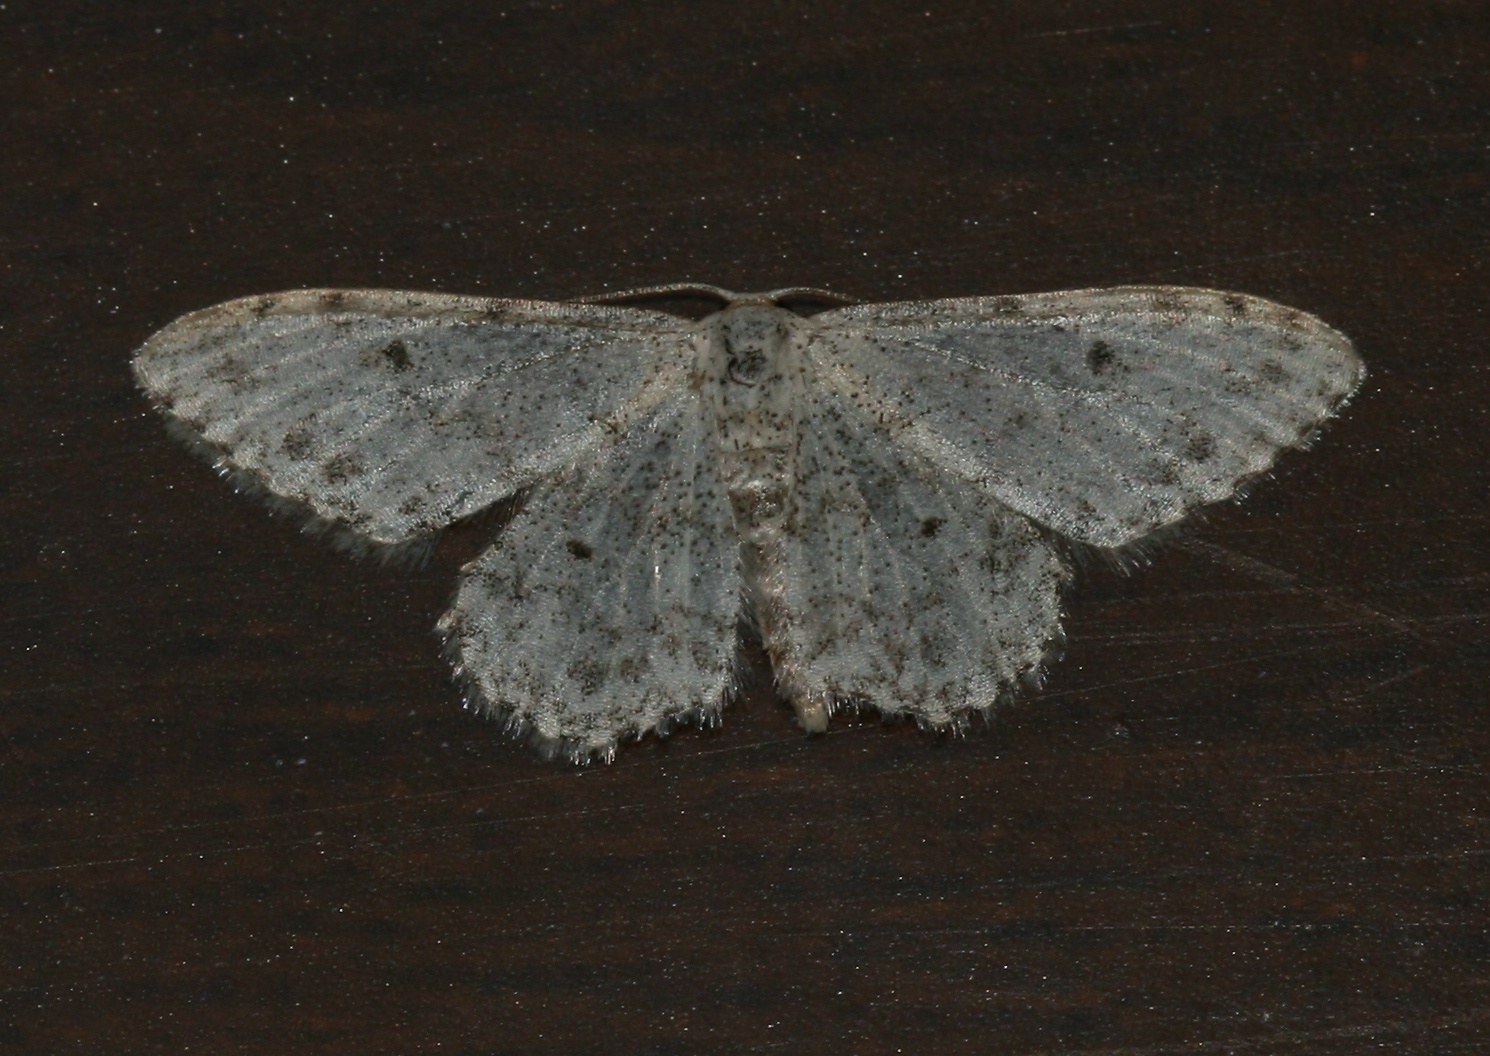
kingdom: Animalia
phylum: Arthropoda
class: Insecta
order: Lepidoptera
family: Geometridae
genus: Idaea
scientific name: Idaea camparia
